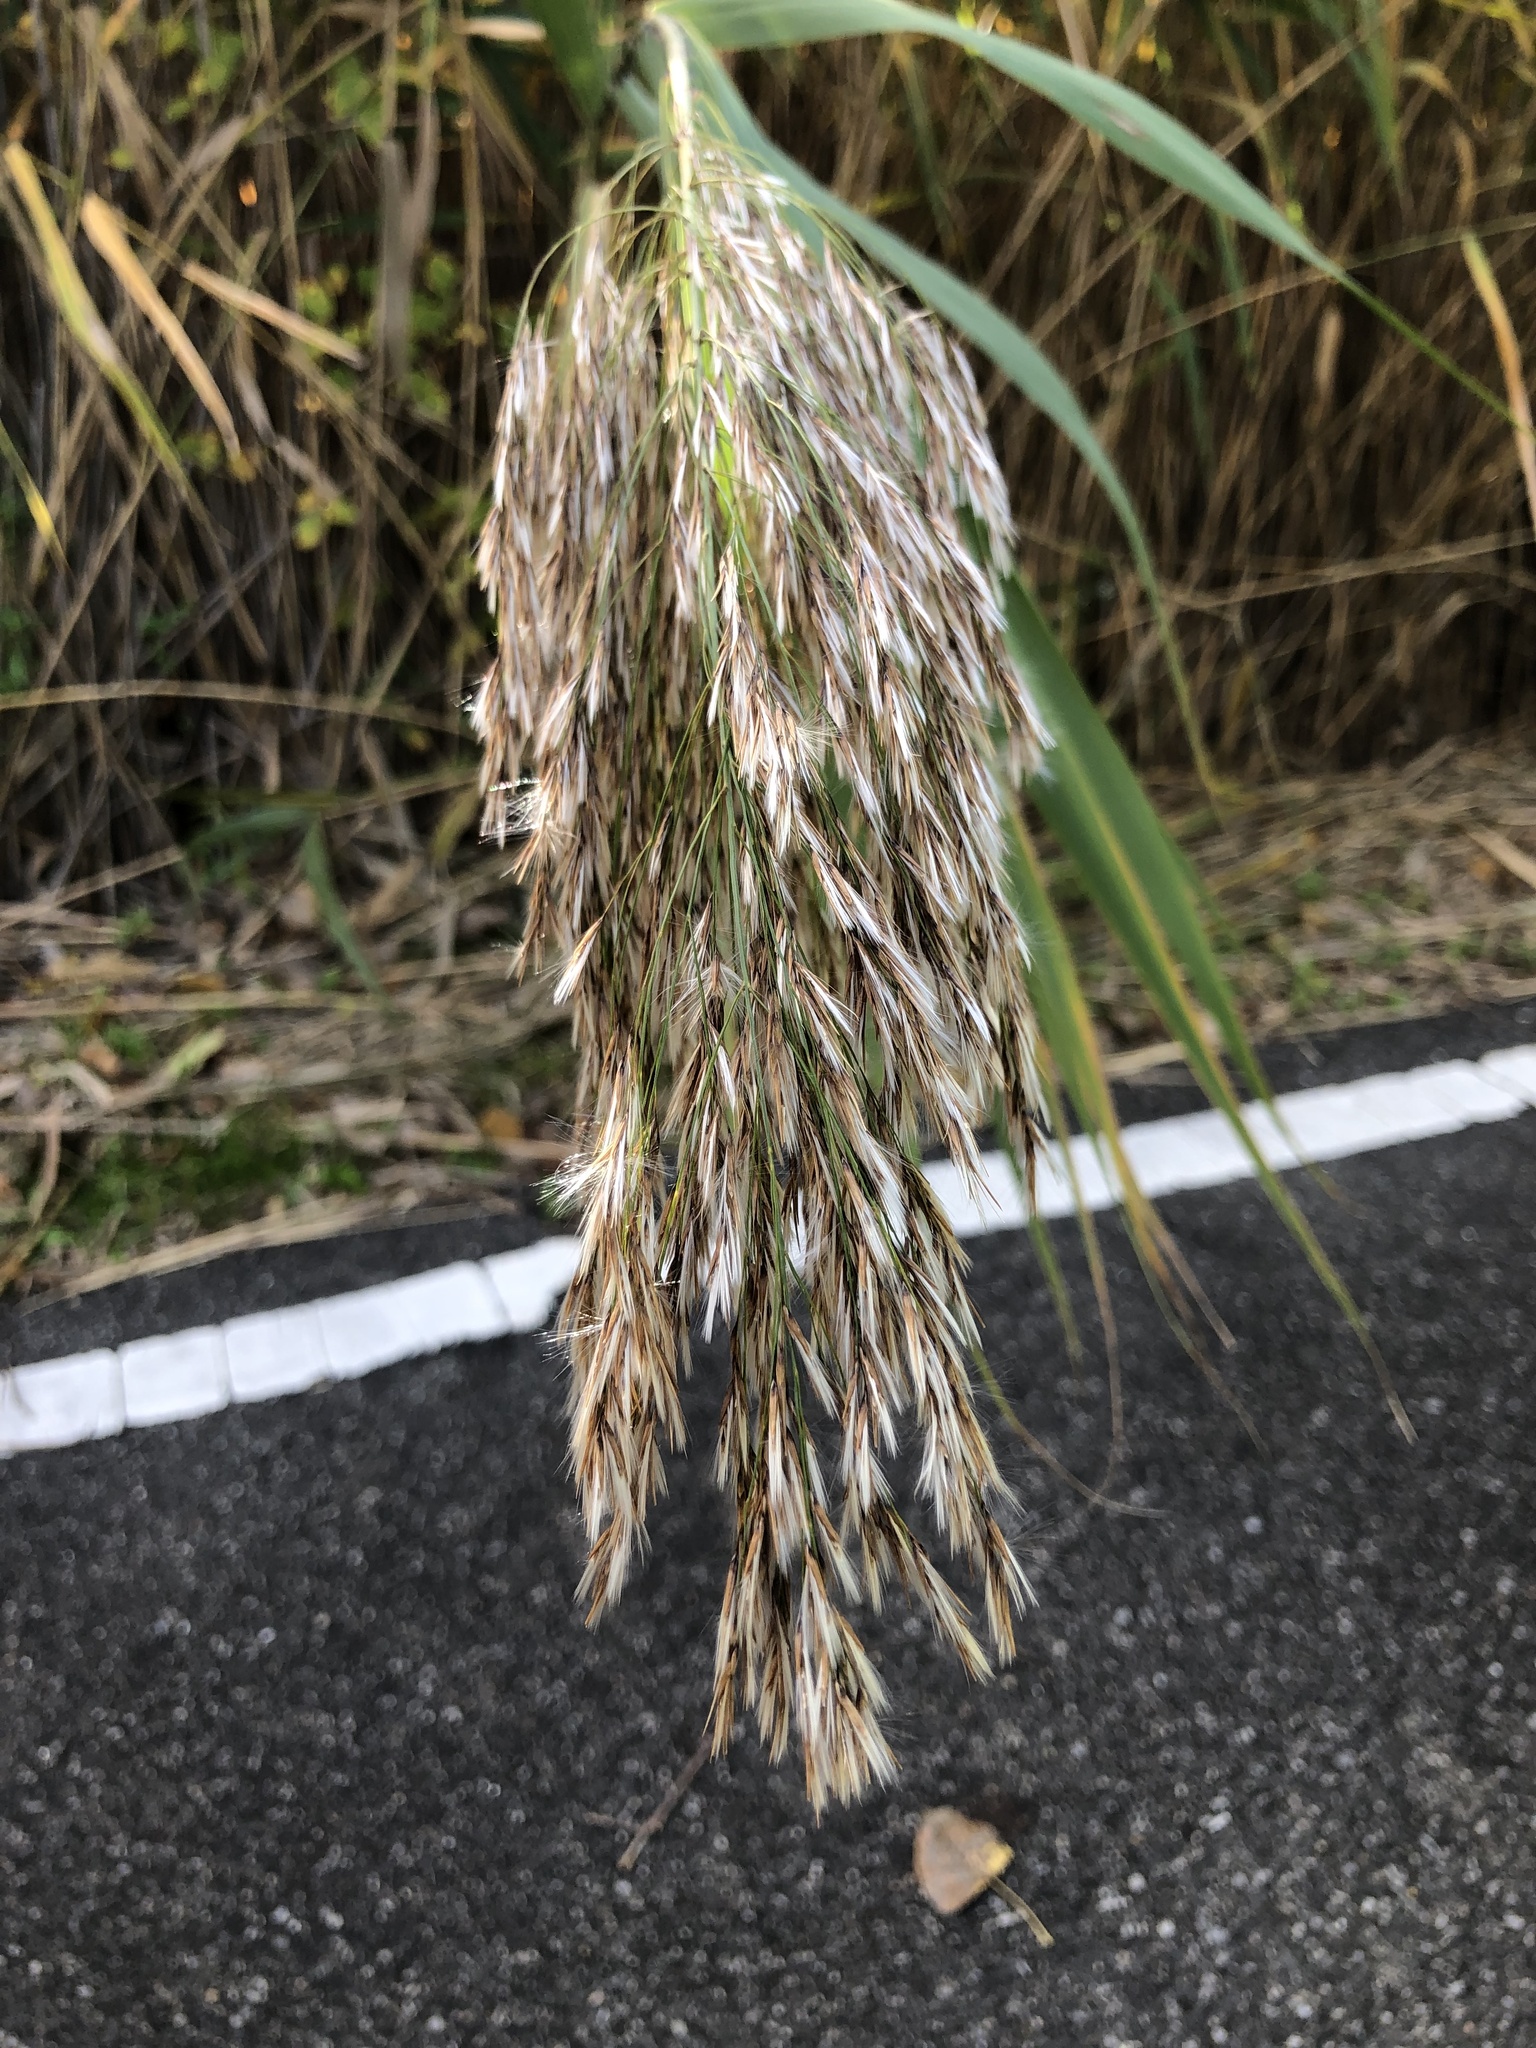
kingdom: Plantae
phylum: Tracheophyta
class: Liliopsida
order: Poales
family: Poaceae
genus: Phragmites
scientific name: Phragmites australis
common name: Common reed
